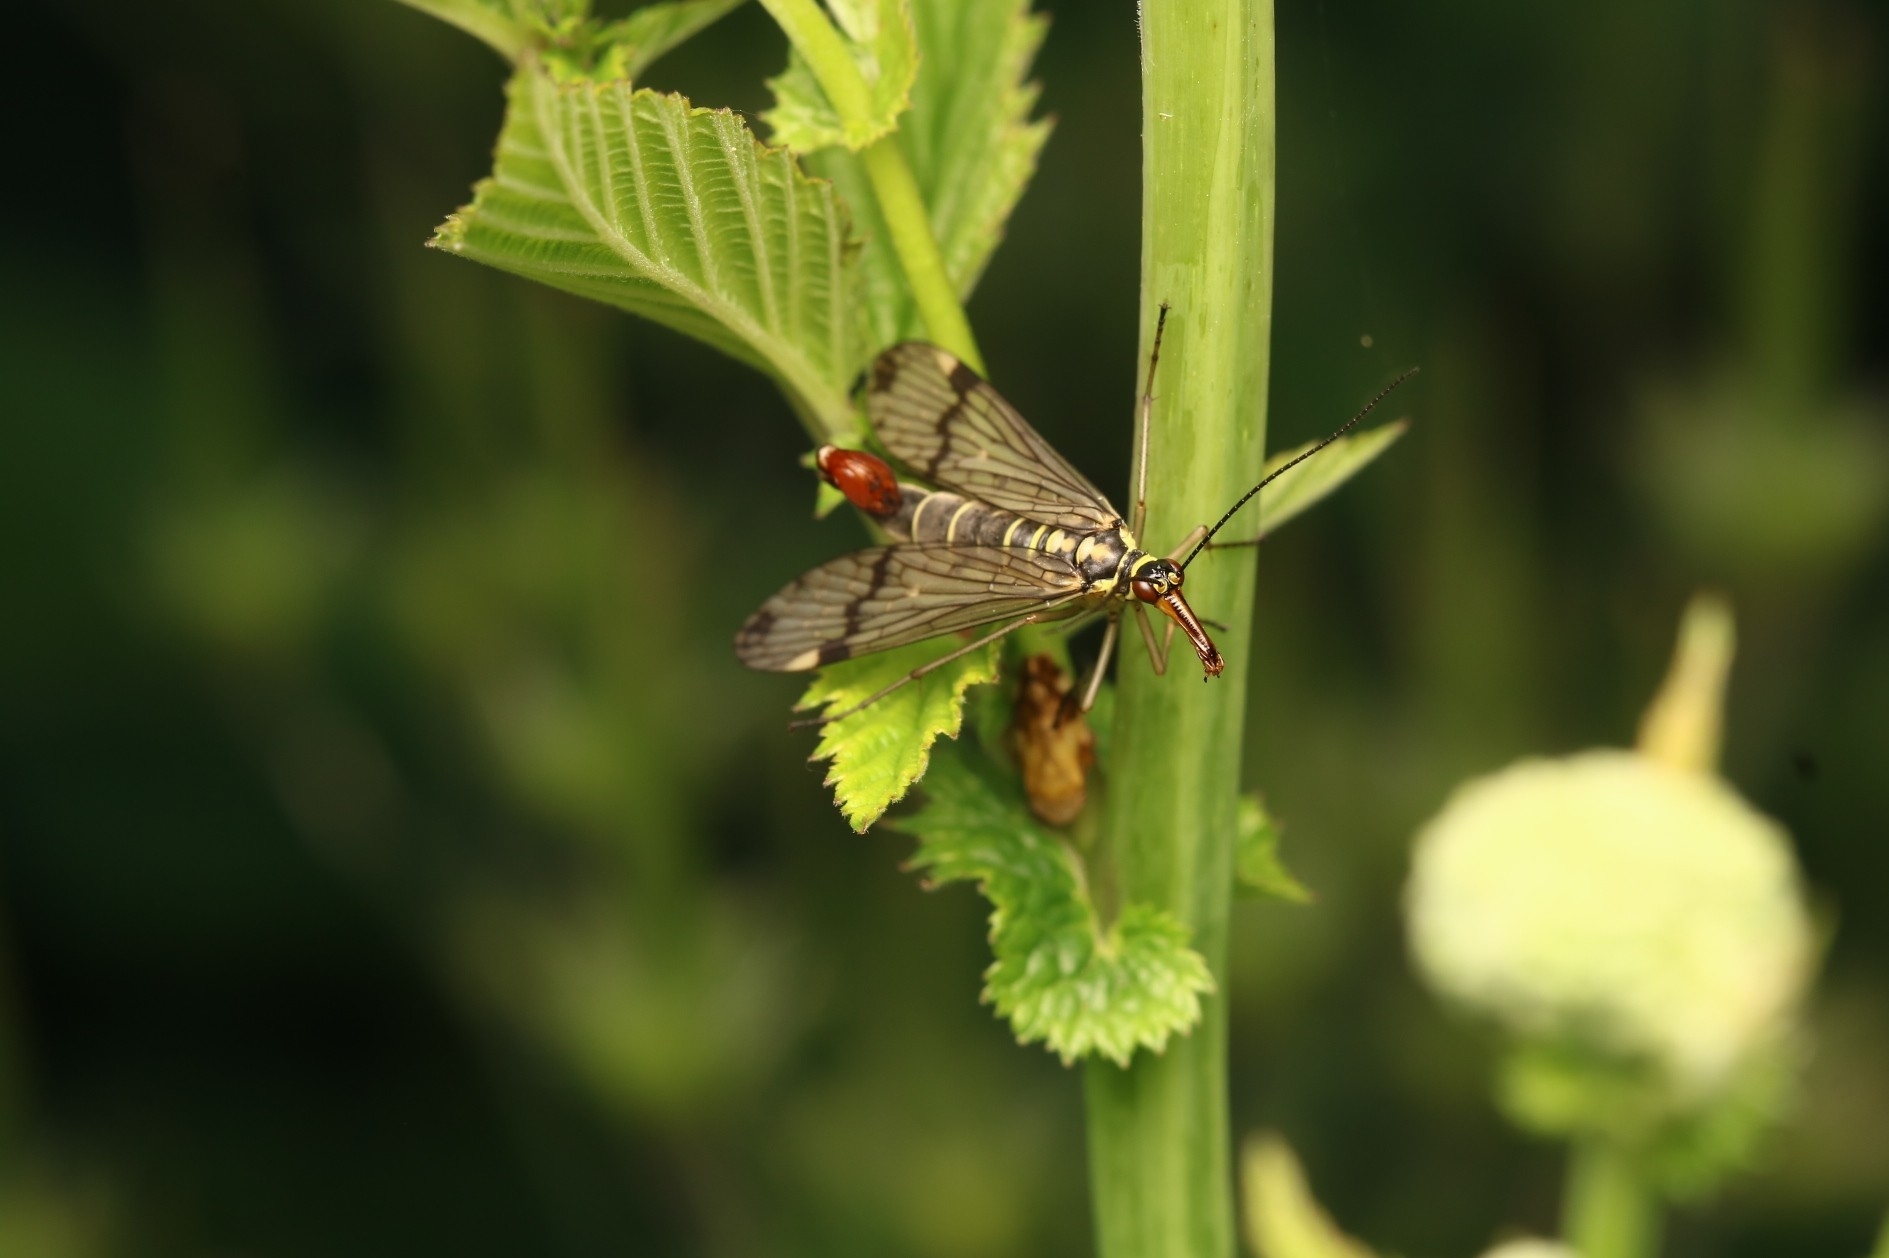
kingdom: Animalia
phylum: Arthropoda
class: Insecta
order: Mecoptera
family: Panorpidae
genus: Panorpa
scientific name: Panorpa communis
